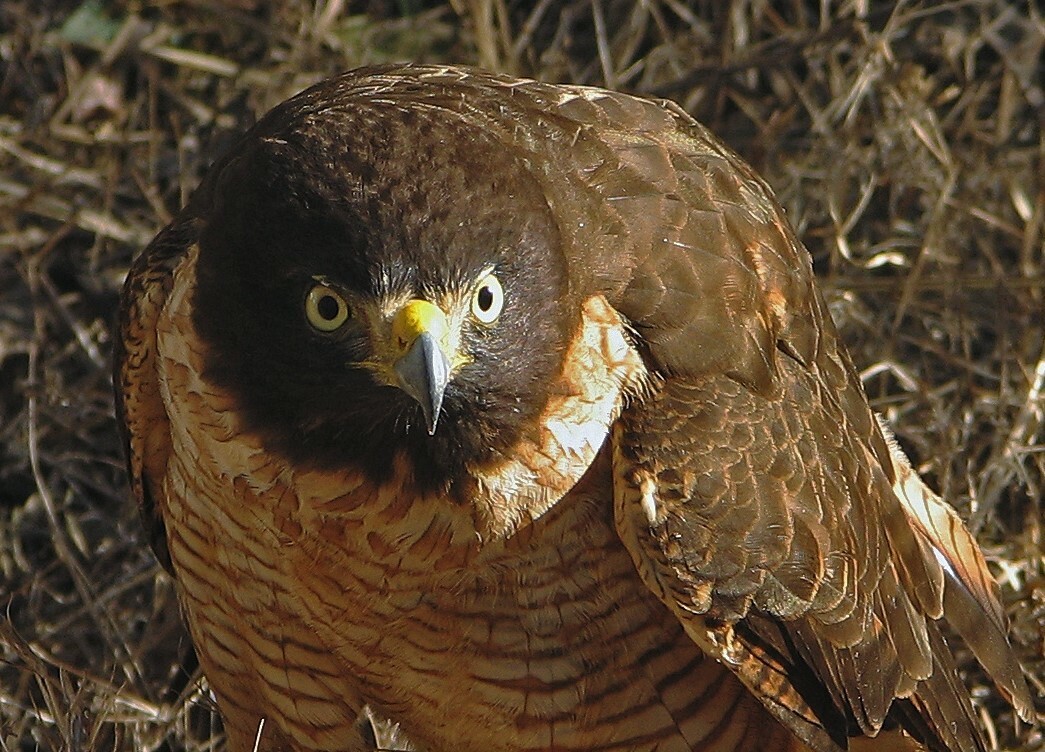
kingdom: Animalia
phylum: Chordata
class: Aves
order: Accipitriformes
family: Accipitridae
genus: Rupornis
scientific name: Rupornis magnirostris
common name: Roadside hawk
